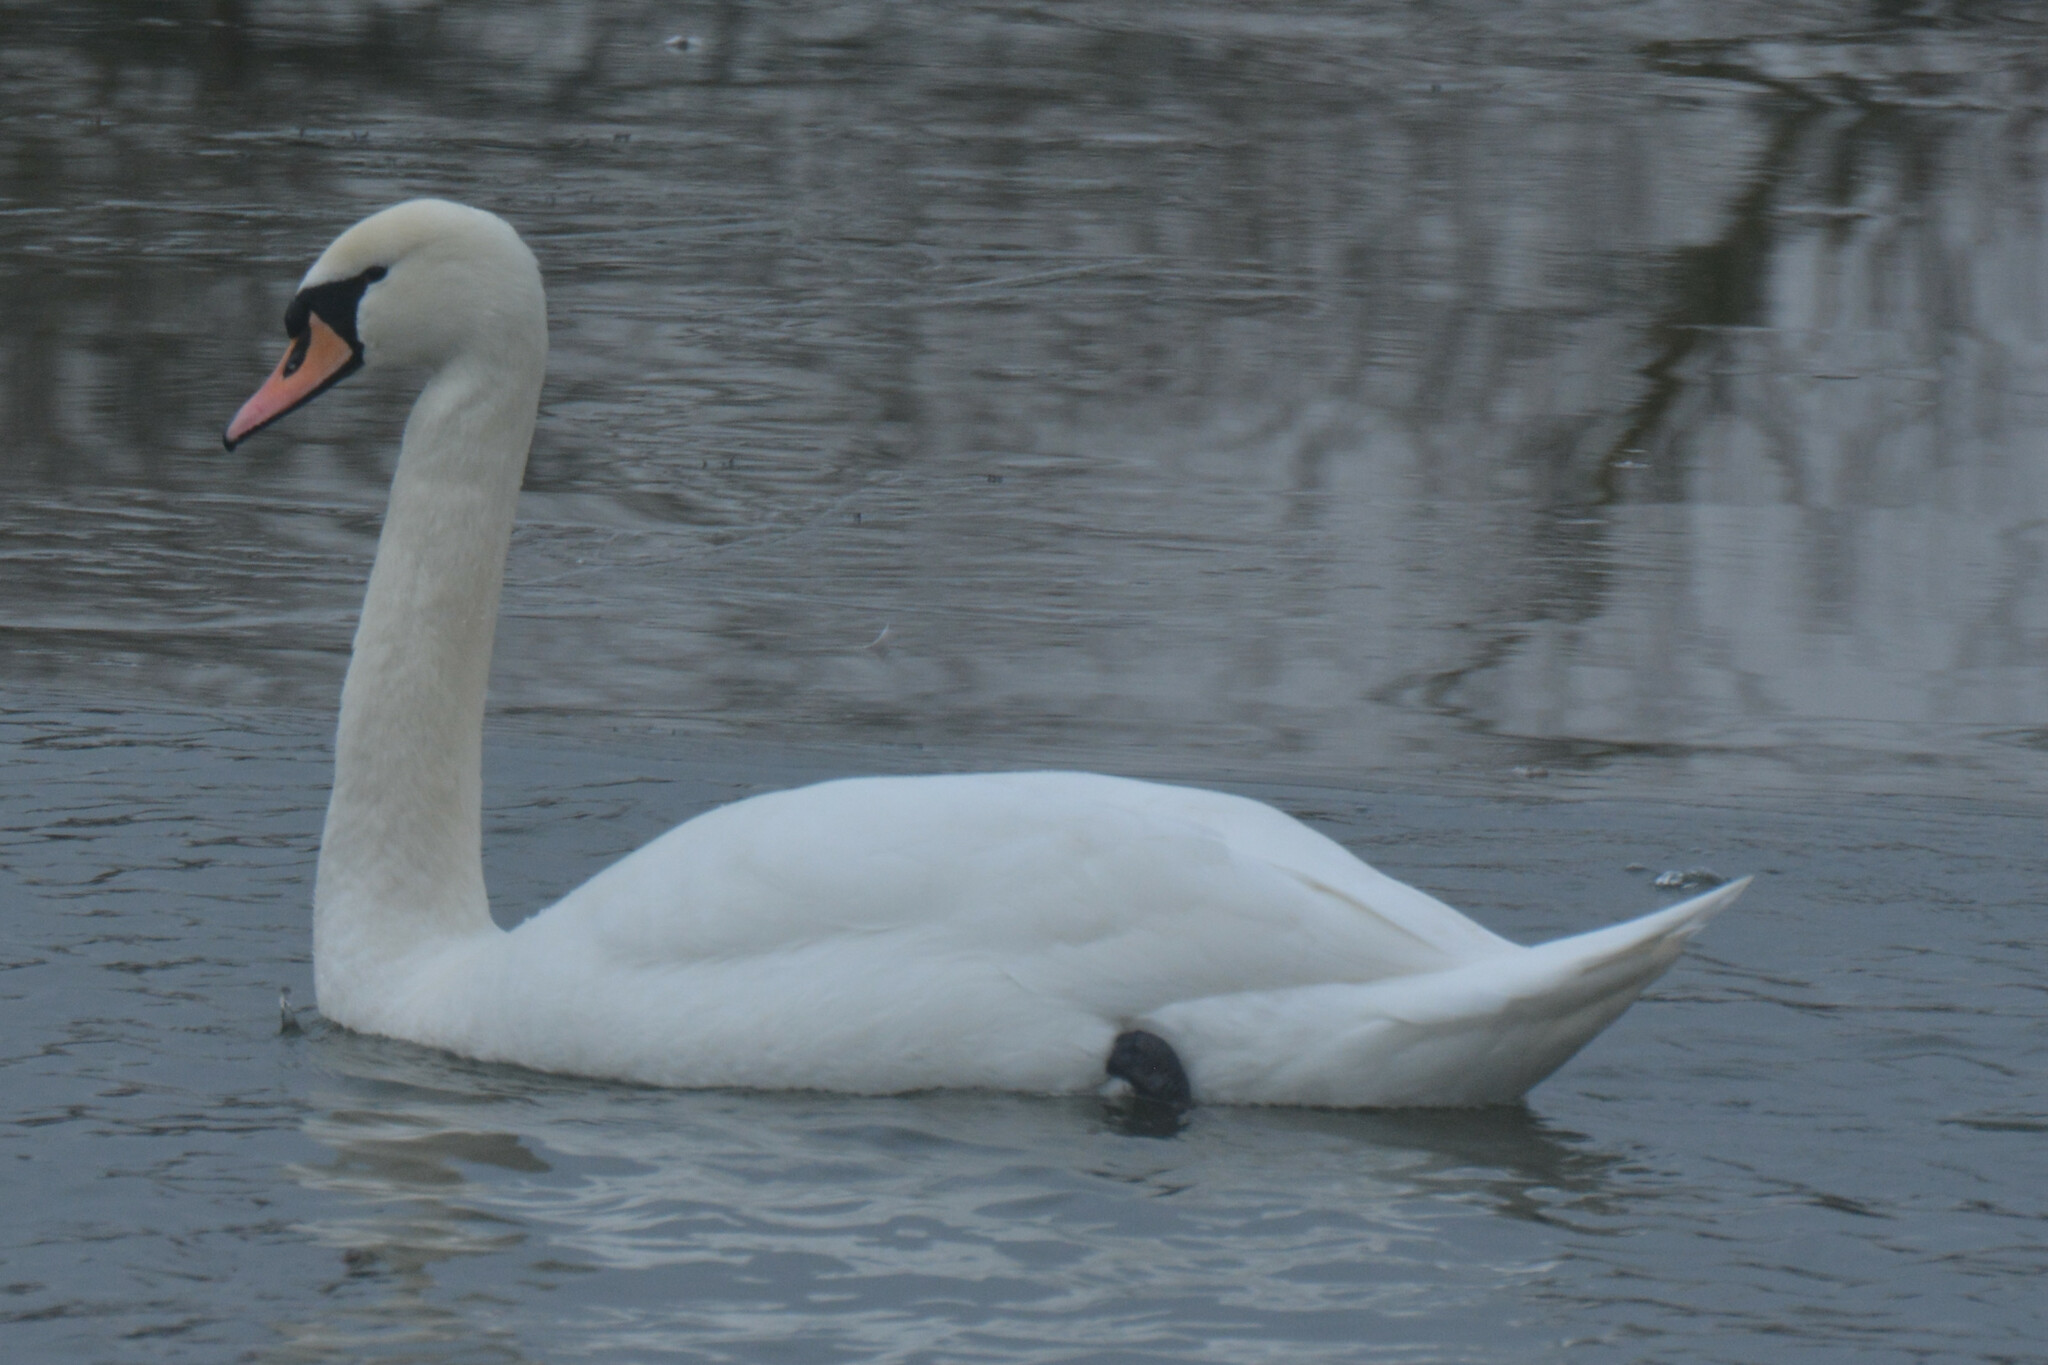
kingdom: Animalia
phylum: Chordata
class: Aves
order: Anseriformes
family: Anatidae
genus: Cygnus
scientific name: Cygnus olor
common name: Mute swan
